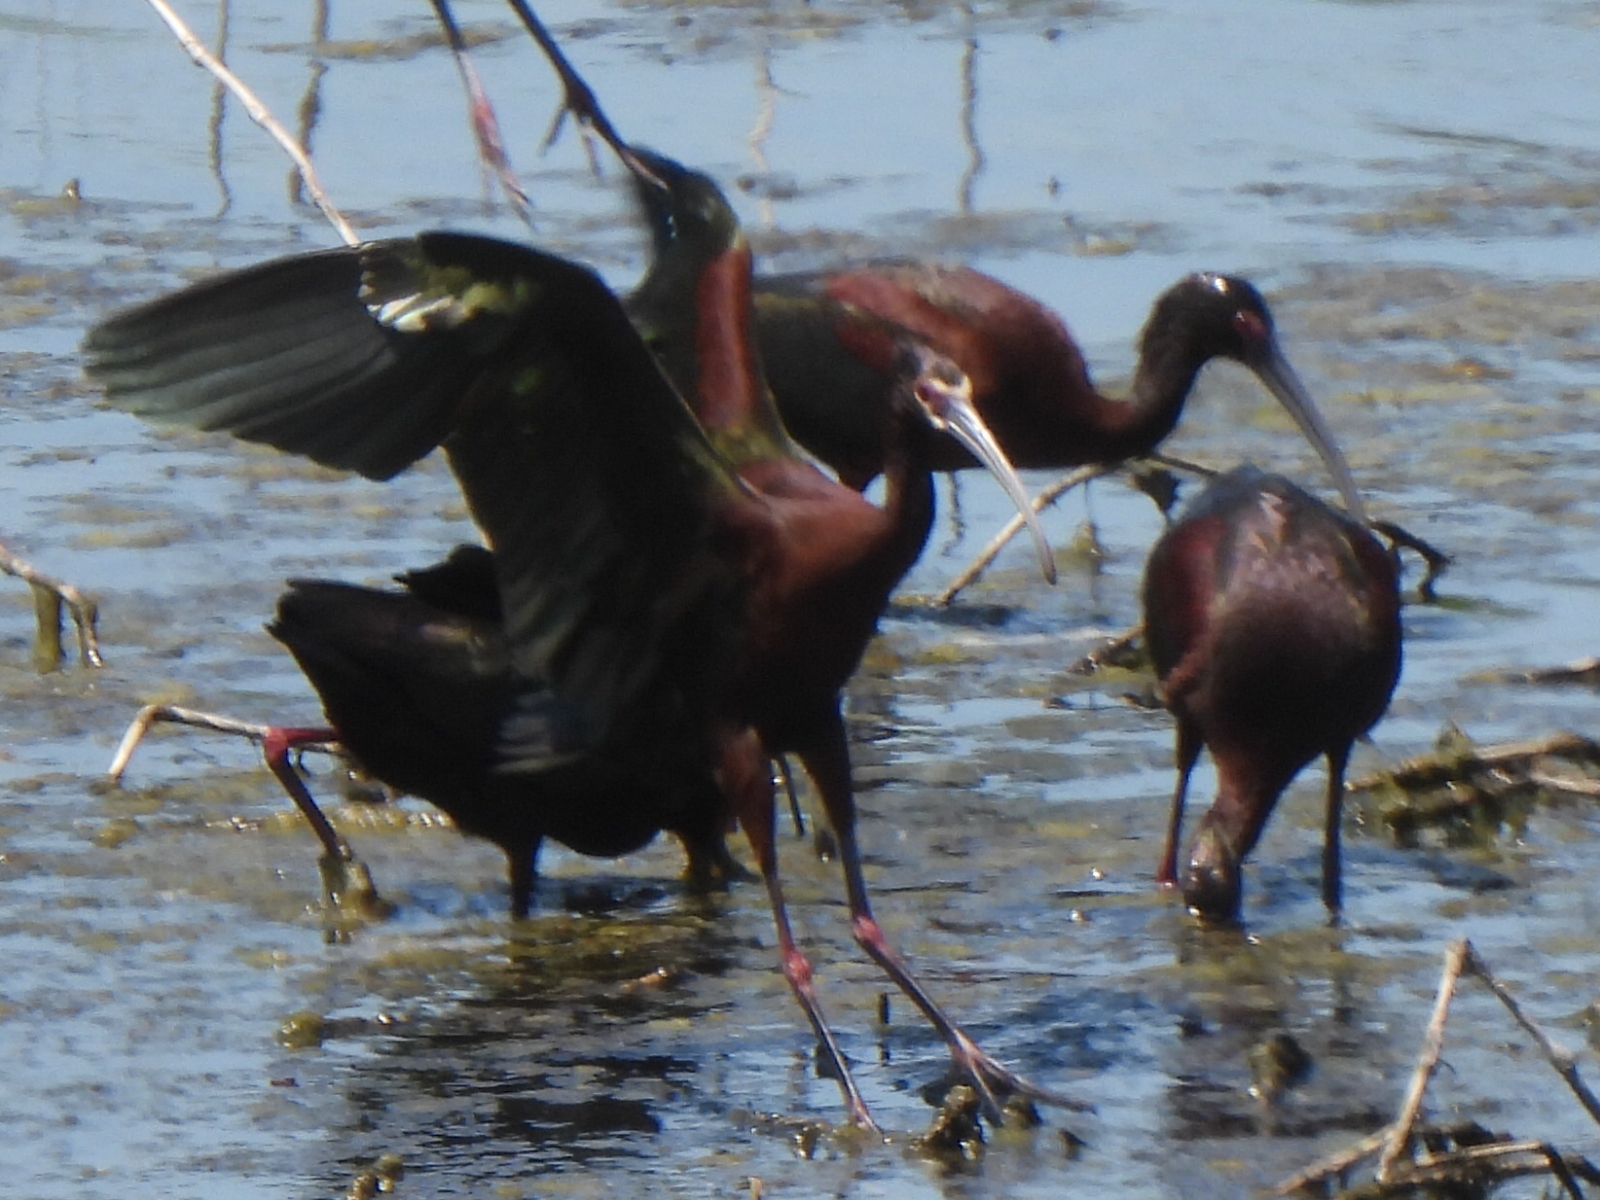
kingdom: Animalia
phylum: Chordata
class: Aves
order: Pelecaniformes
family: Threskiornithidae
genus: Plegadis
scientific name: Plegadis chihi
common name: White-faced ibis
